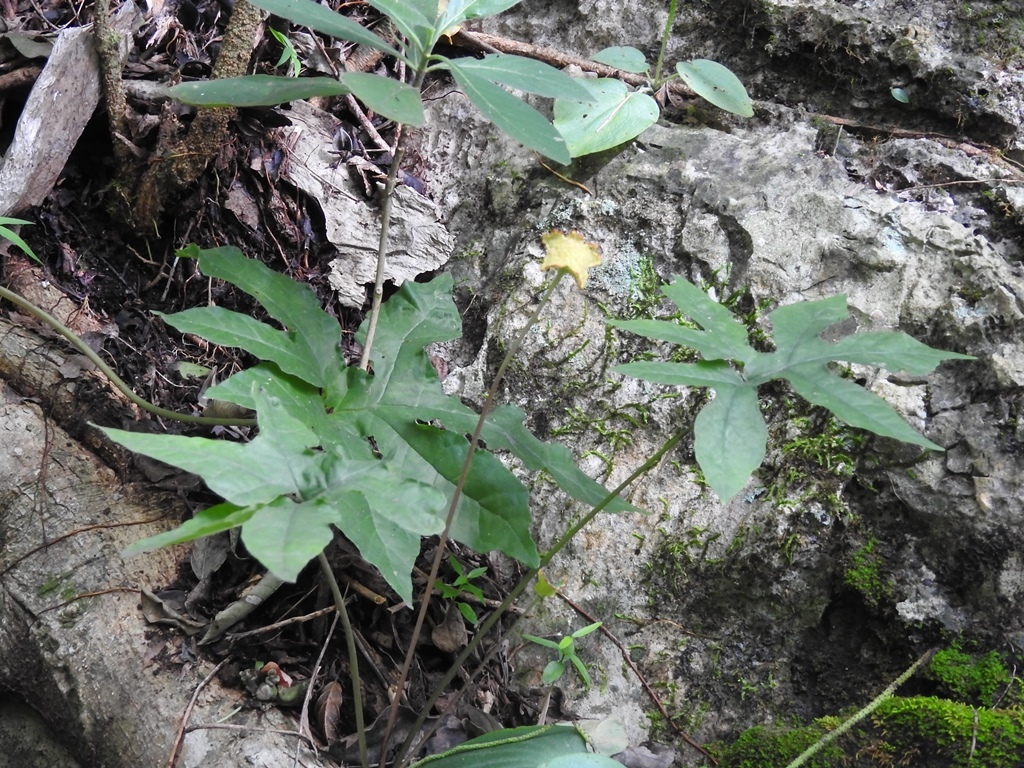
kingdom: Plantae
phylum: Tracheophyta
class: Magnoliopsida
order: Rosales
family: Moraceae
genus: Dorstenia
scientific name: Dorstenia contrajerva
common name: Tusilla
